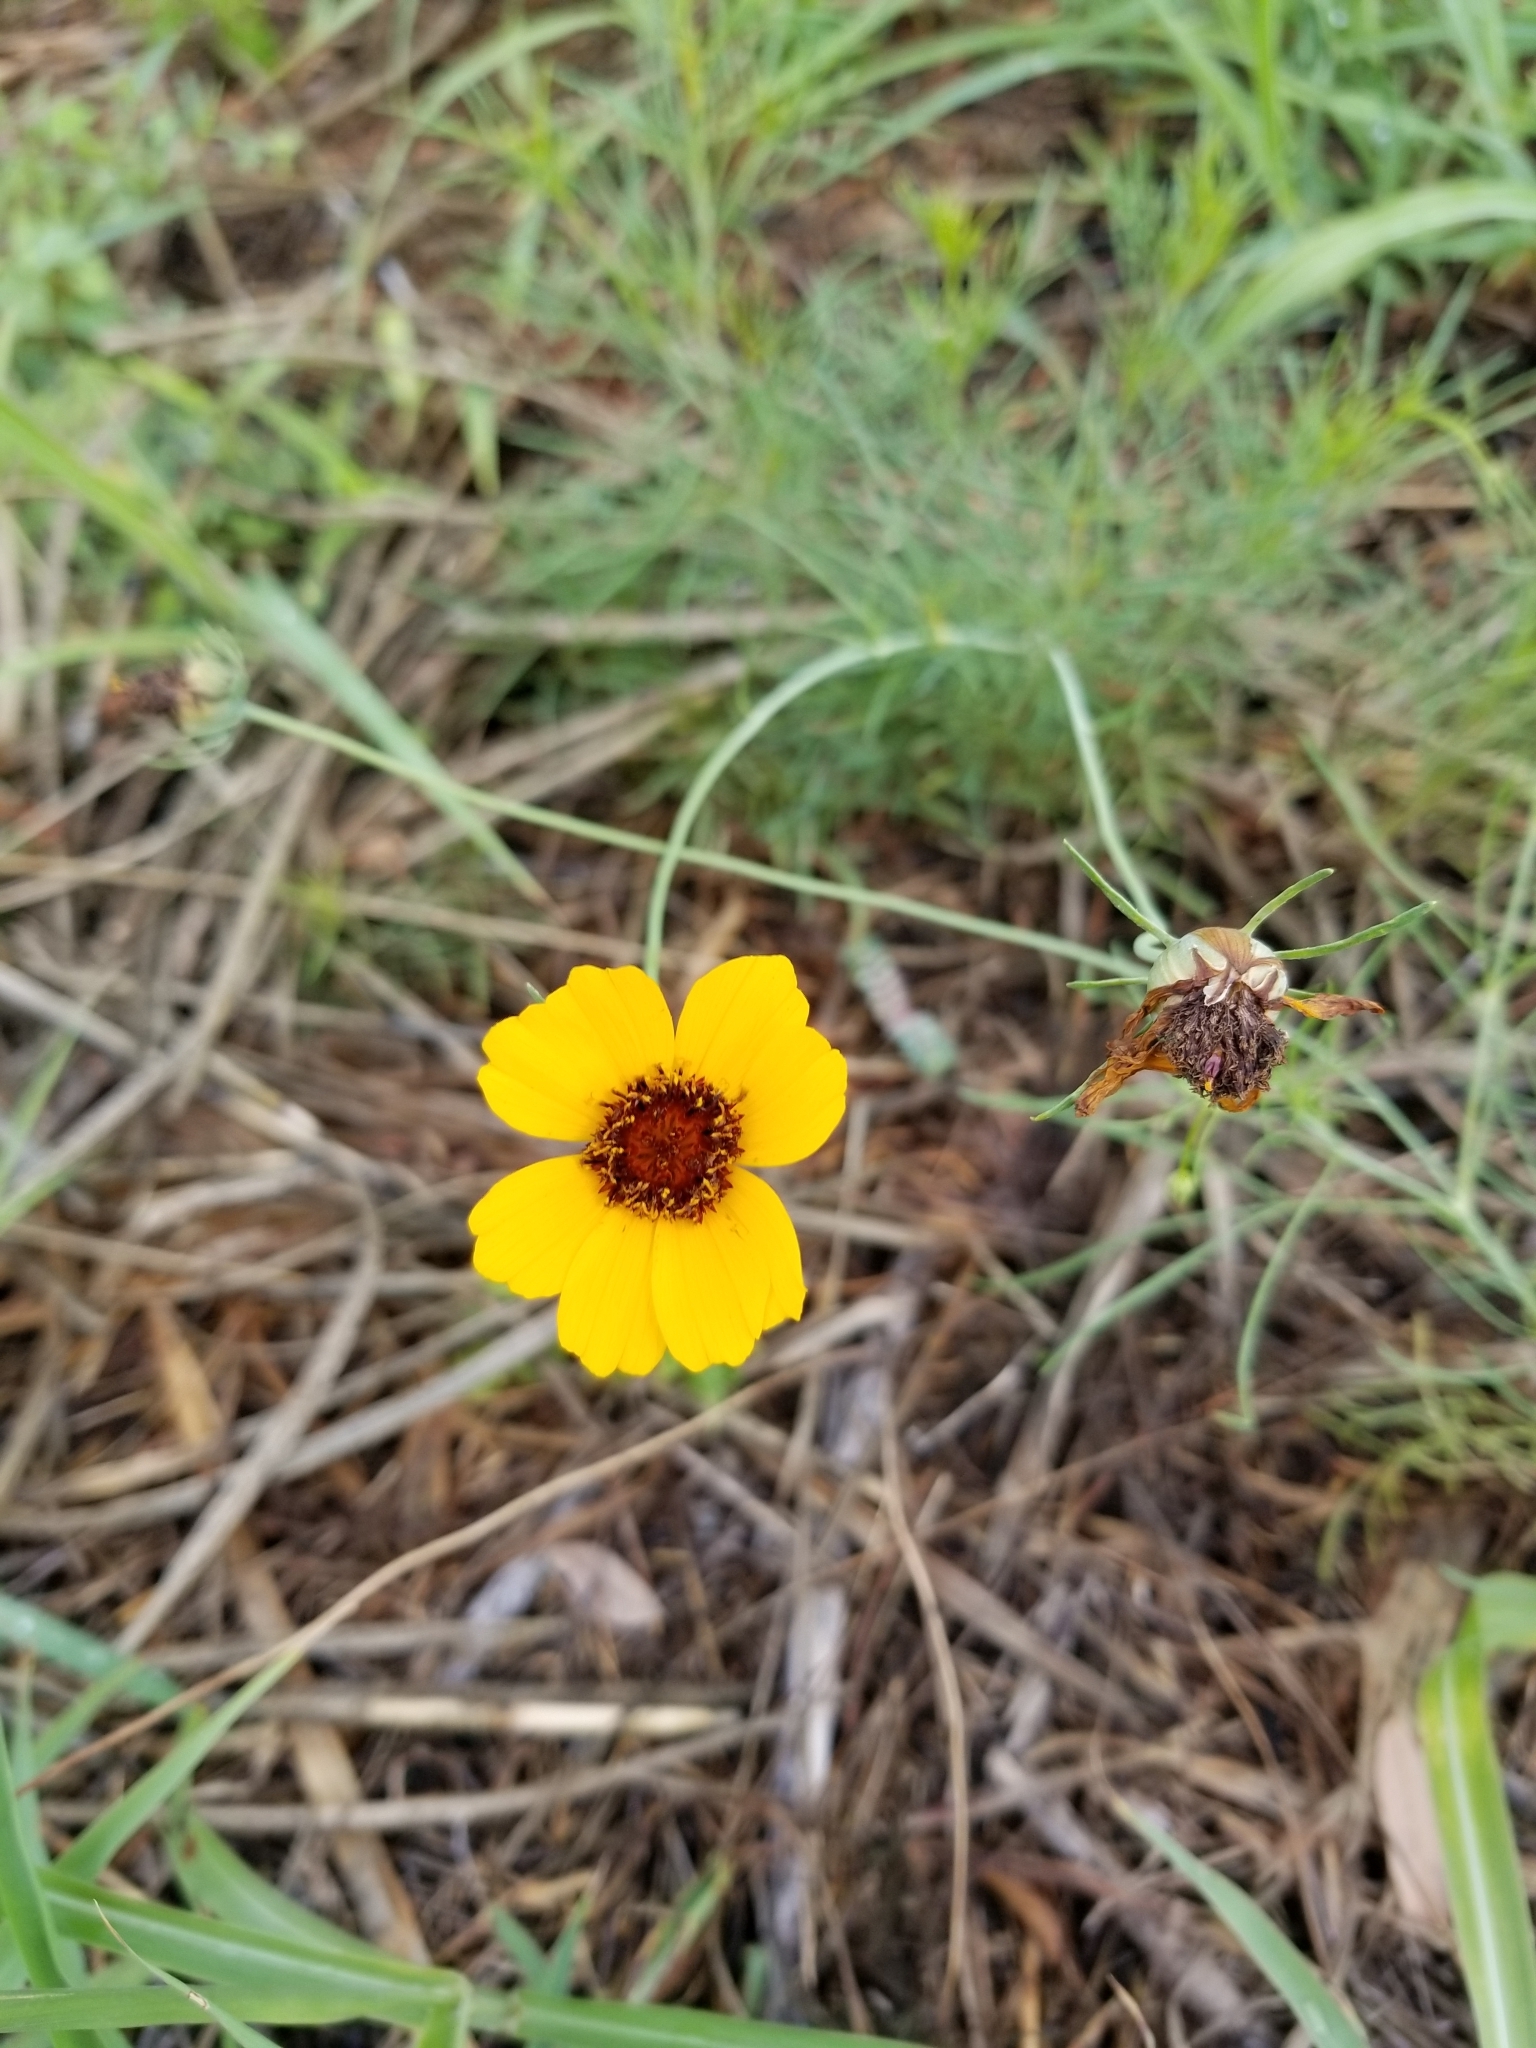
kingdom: Plantae
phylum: Tracheophyta
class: Magnoliopsida
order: Asterales
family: Asteraceae
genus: Thelesperma
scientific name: Thelesperma filifolium
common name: Stiff greenthread
